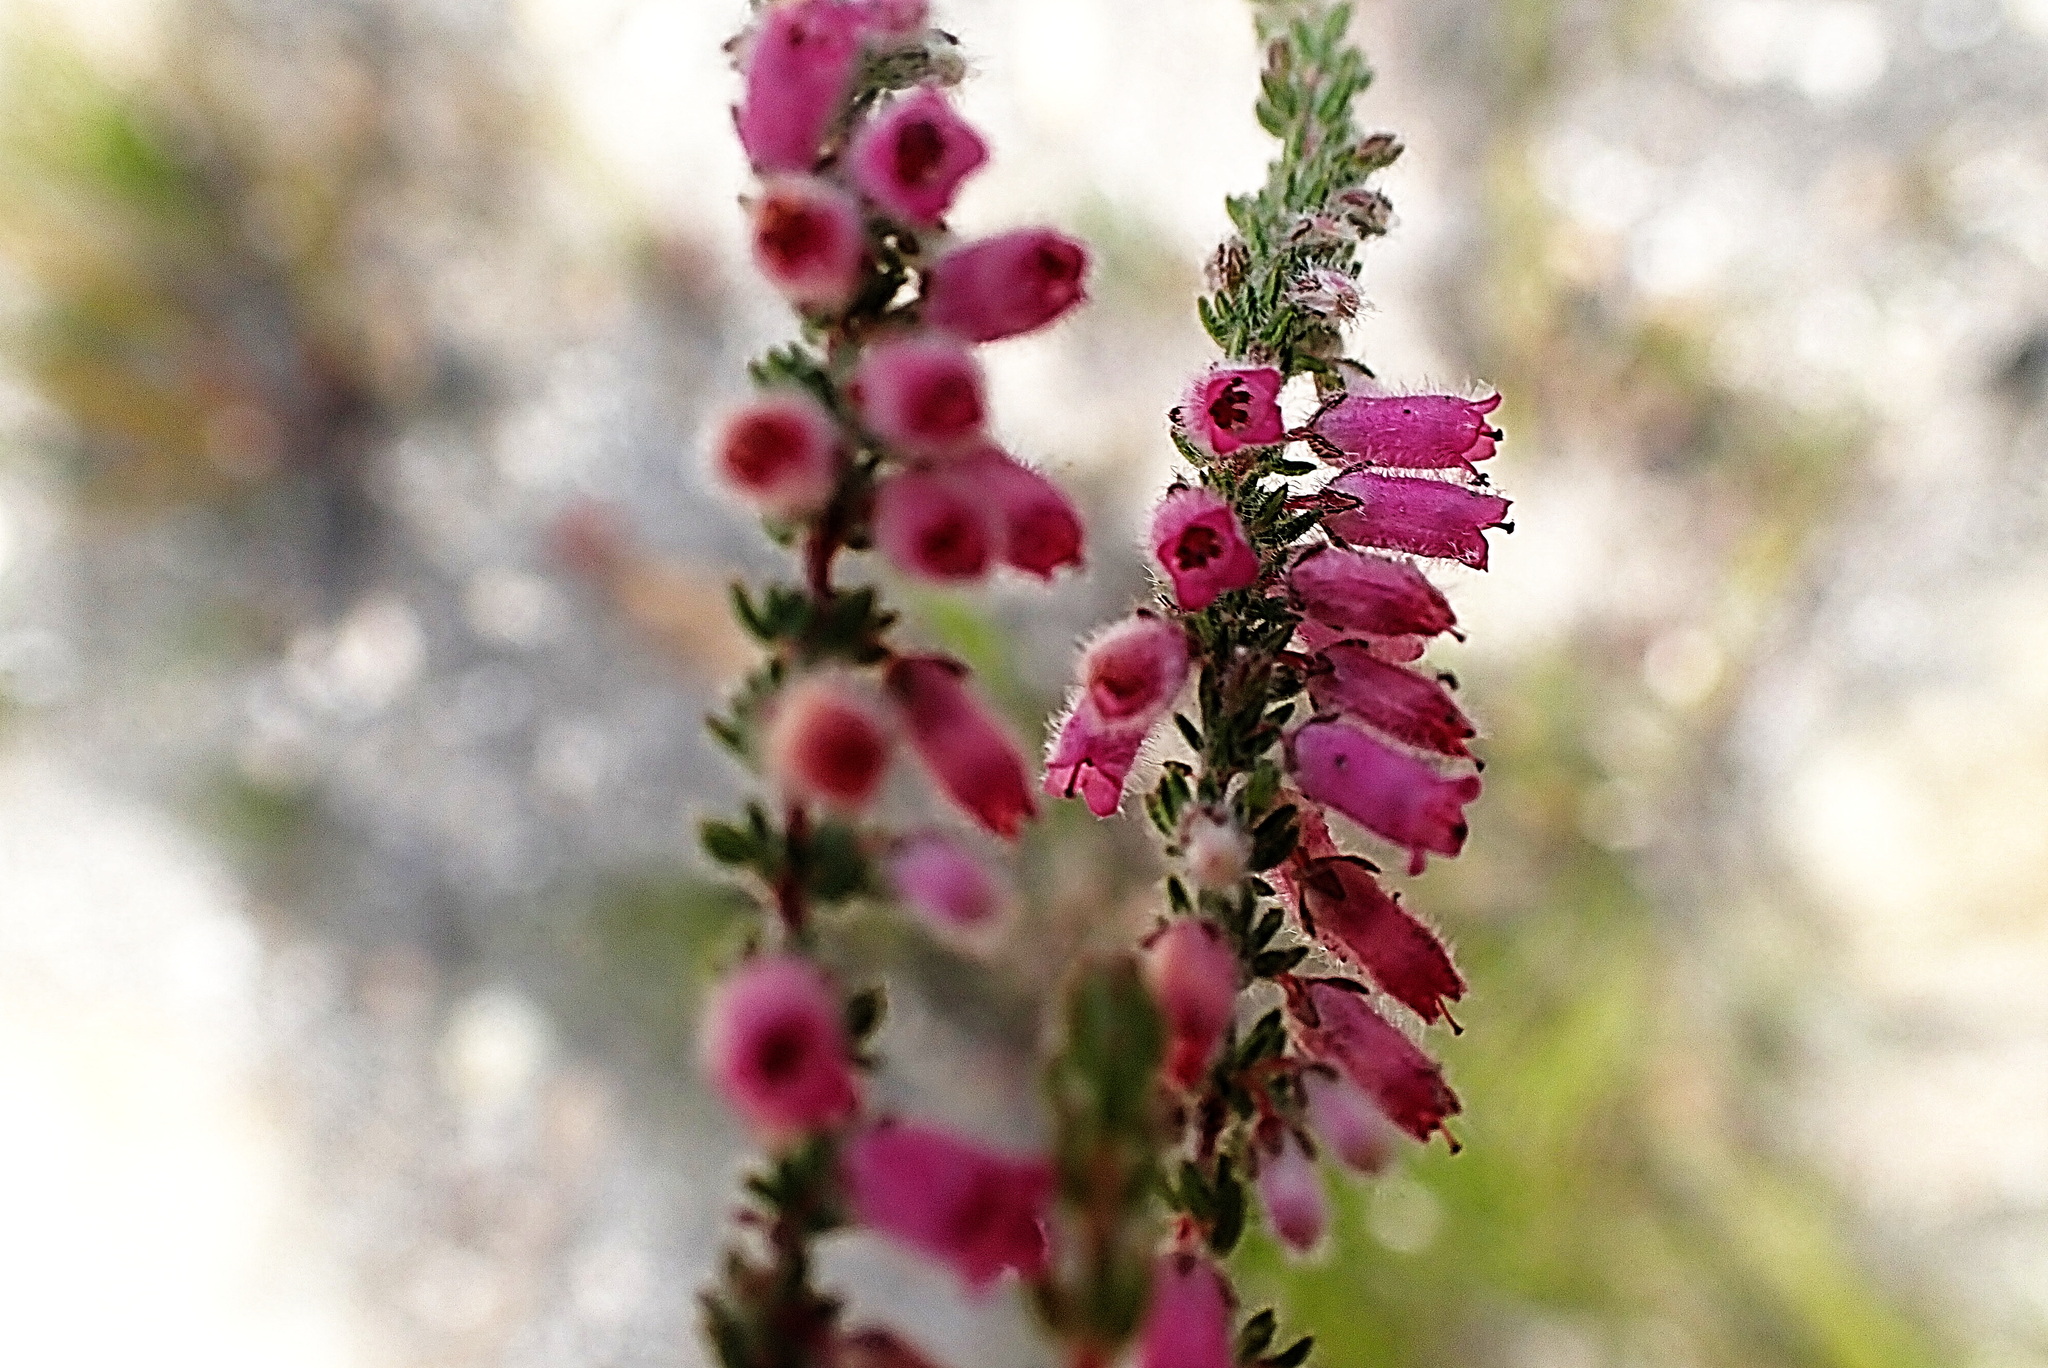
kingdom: Plantae
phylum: Tracheophyta
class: Magnoliopsida
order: Ericales
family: Ericaceae
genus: Erica
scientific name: Erica garciae
